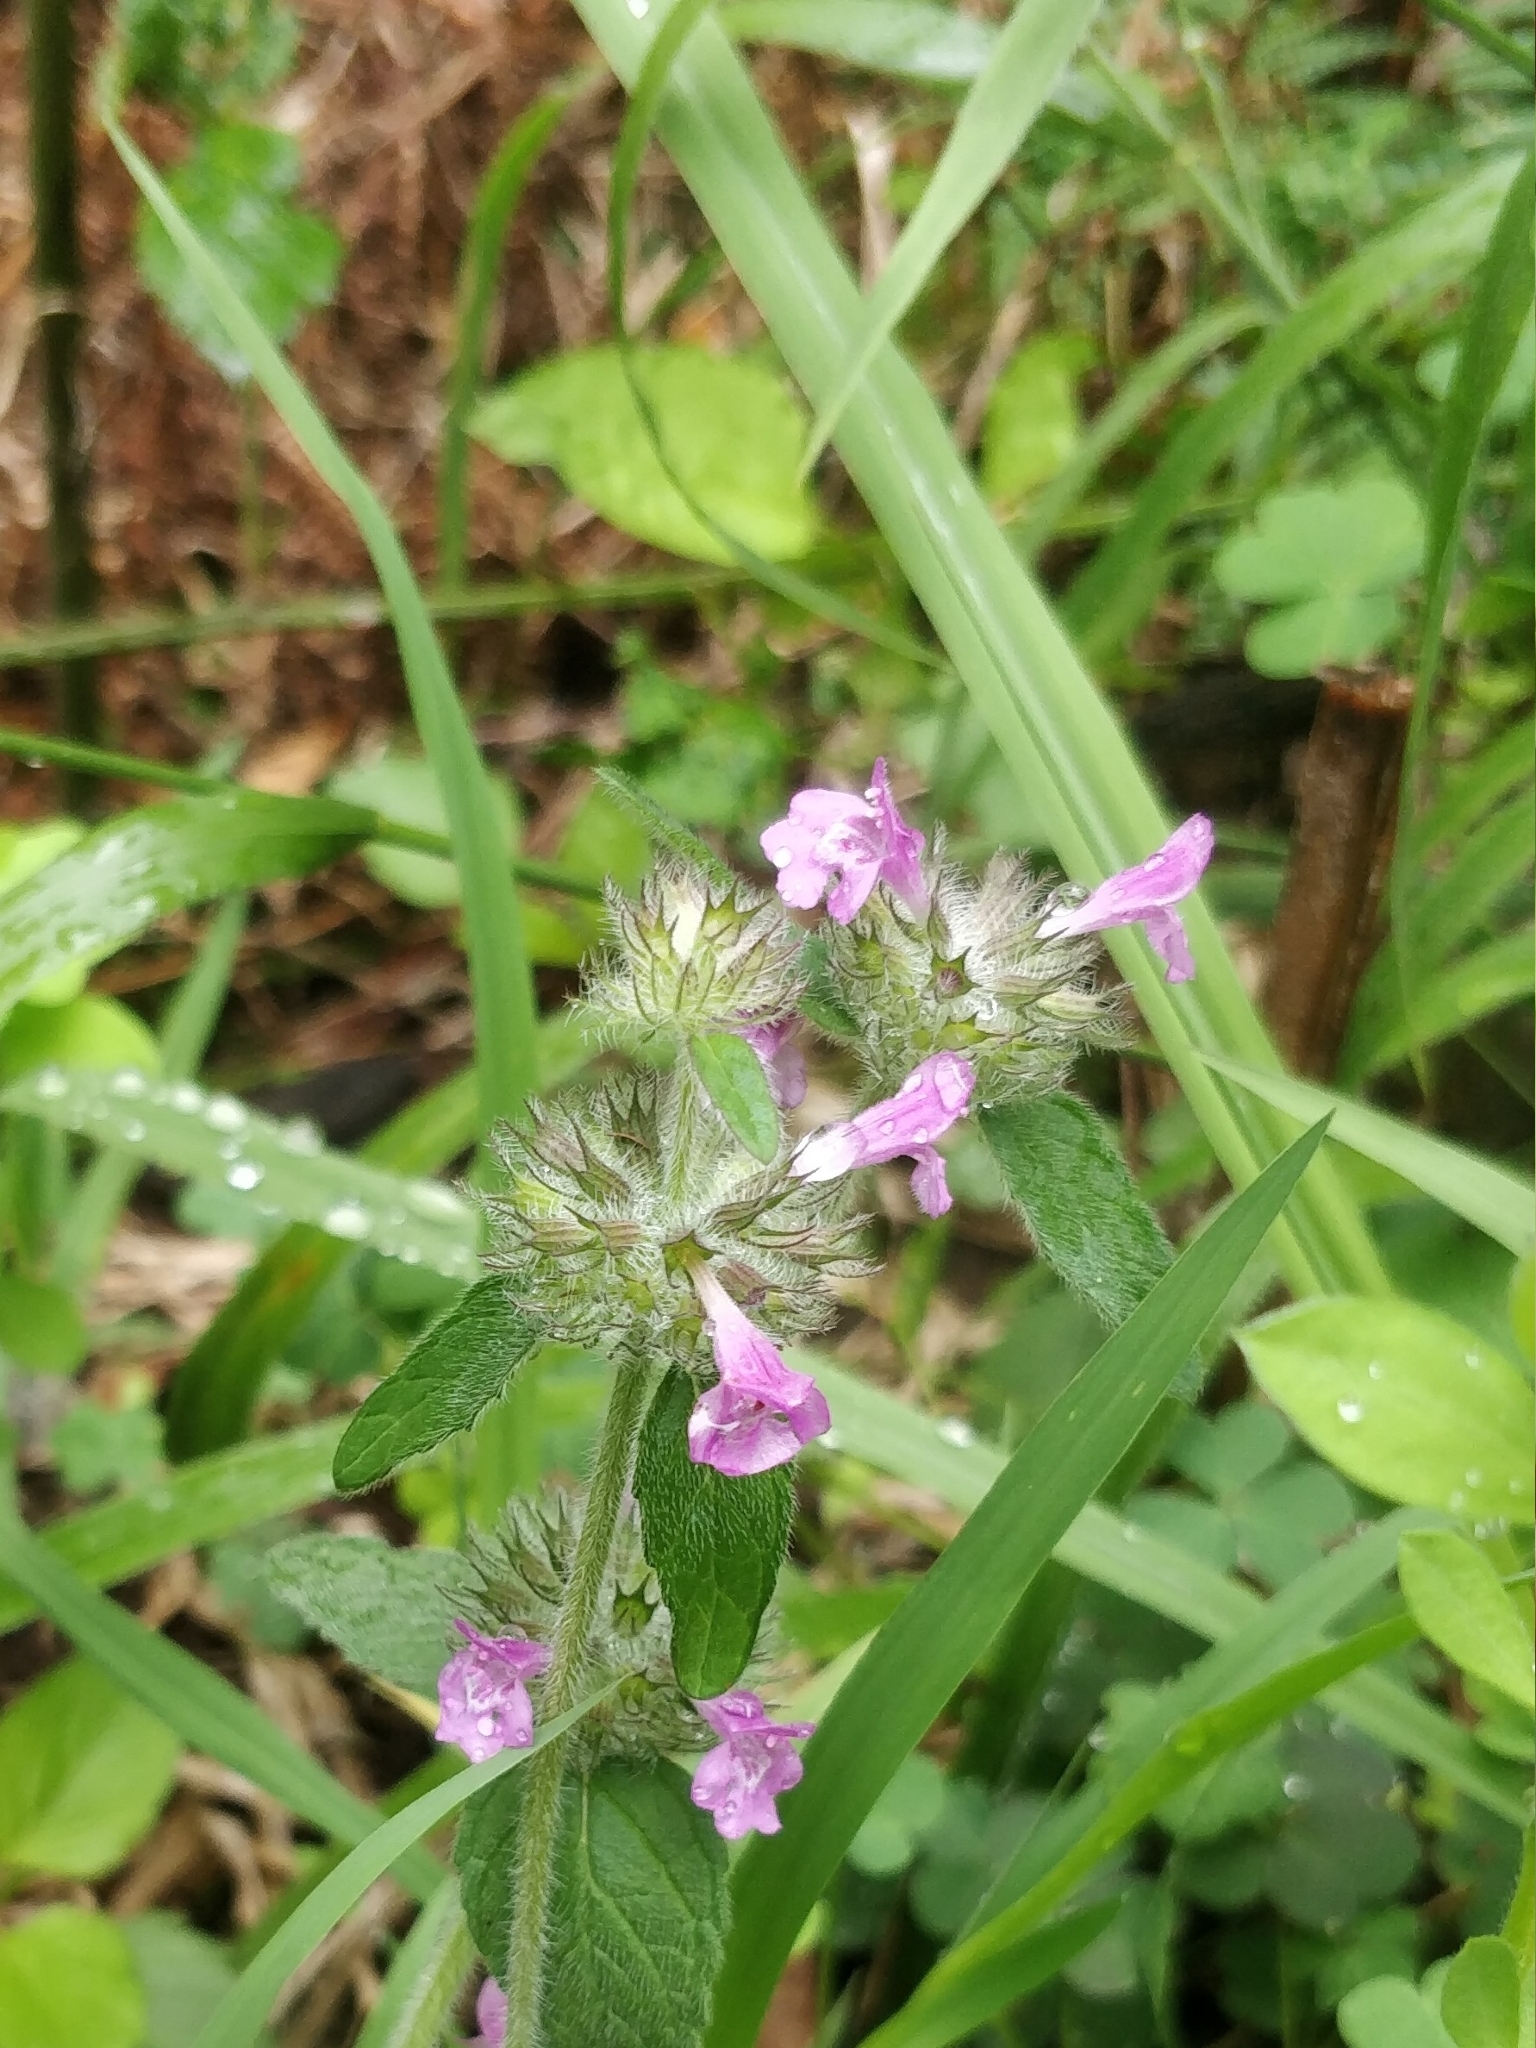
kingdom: Plantae
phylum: Tracheophyta
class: Magnoliopsida
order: Lamiales
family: Lamiaceae
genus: Clinopodium
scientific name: Clinopodium vulgare
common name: Wild basil
